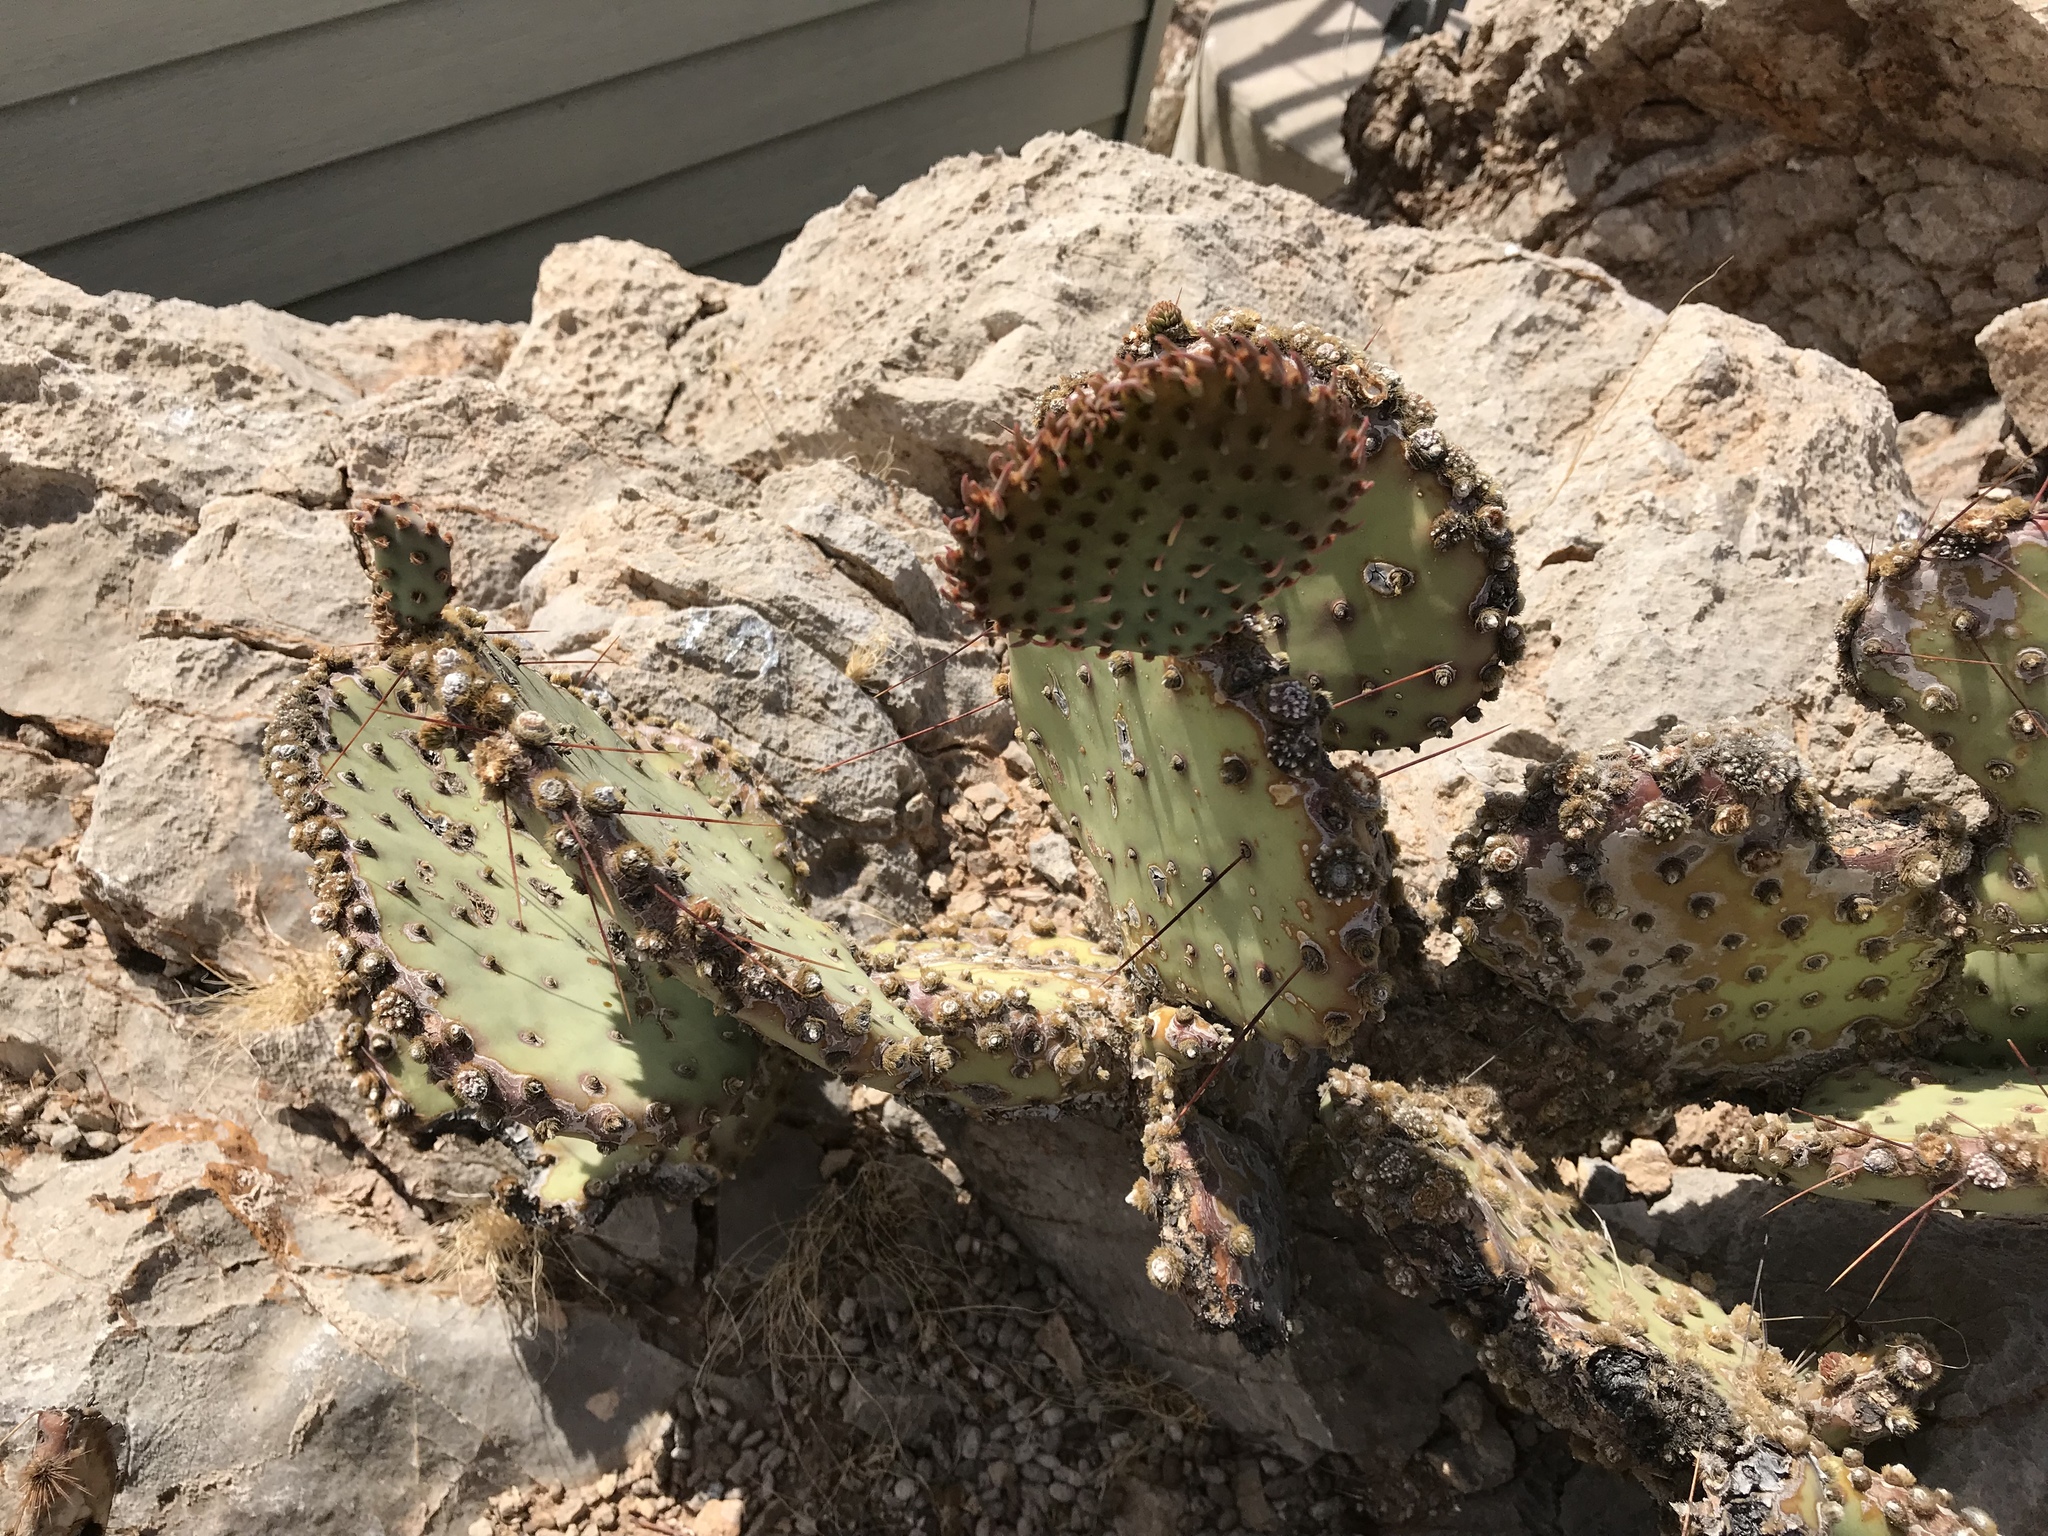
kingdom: Plantae
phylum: Tracheophyta
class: Magnoliopsida
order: Caryophyllales
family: Cactaceae
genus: Opuntia
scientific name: Opuntia macrocentra
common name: Purple prickly-pear
